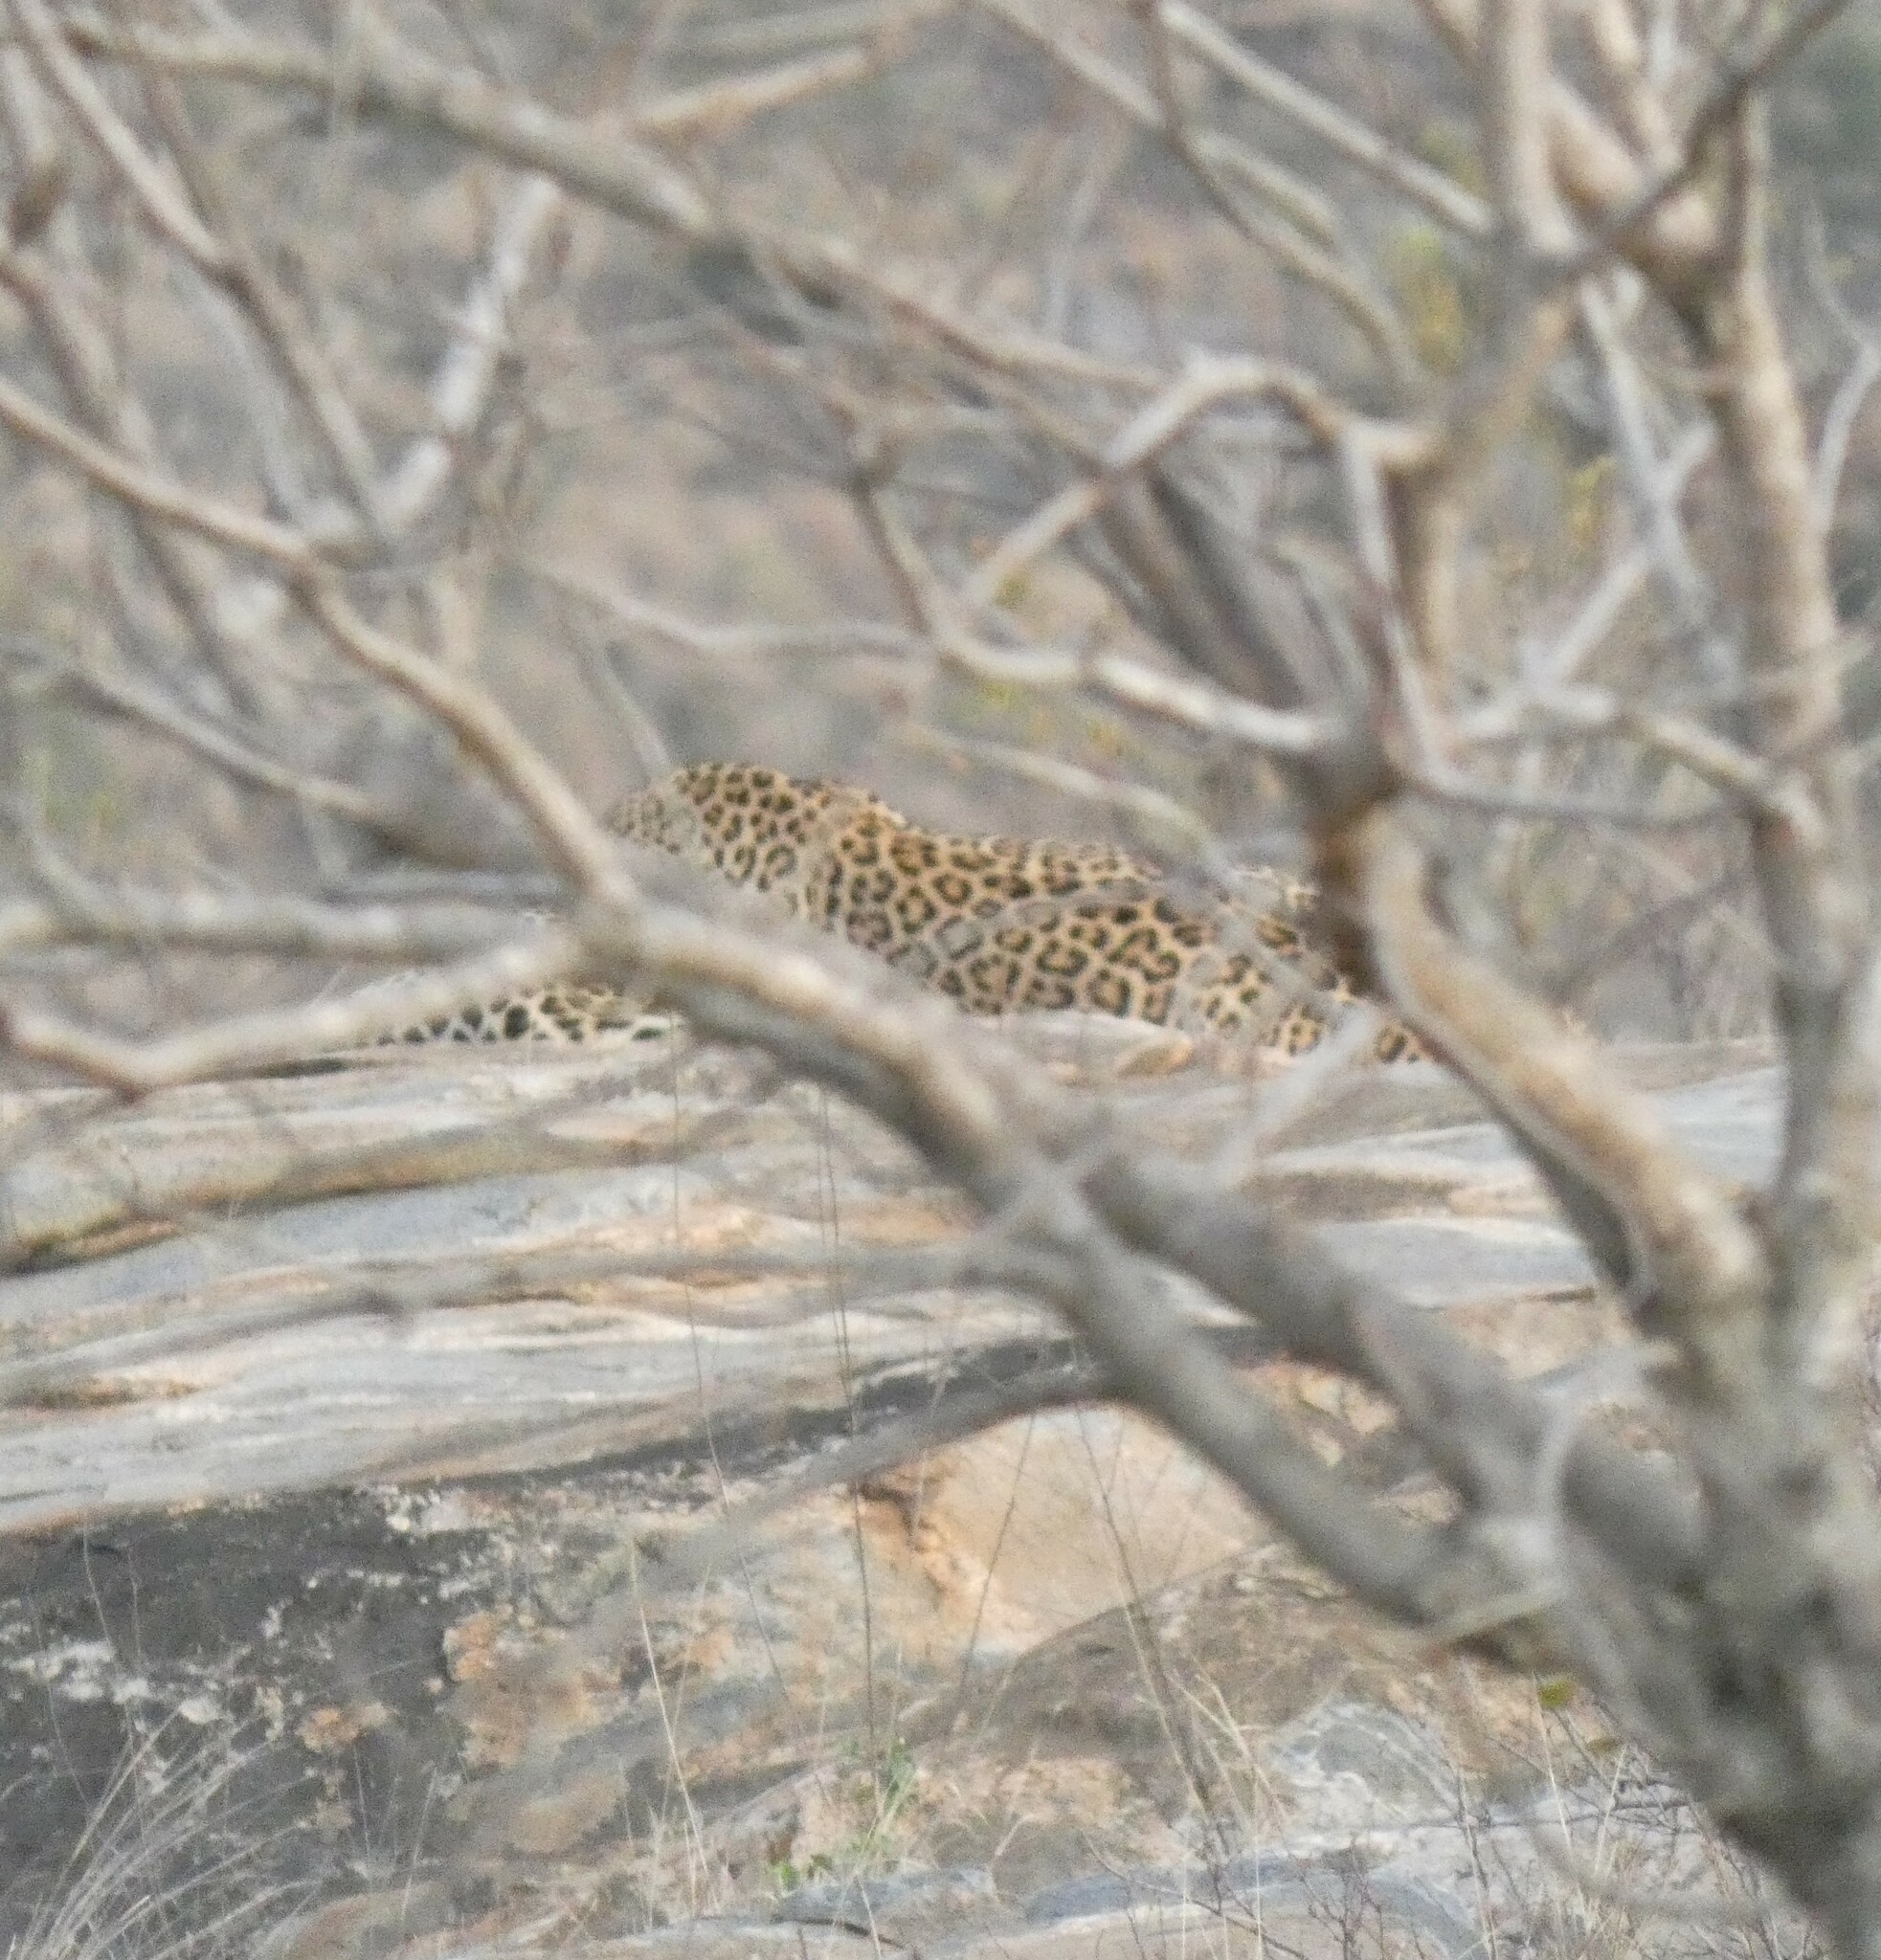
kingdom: Animalia
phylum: Chordata
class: Mammalia
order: Carnivora
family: Felidae
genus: Panthera
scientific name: Panthera pardus
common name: Leopard
